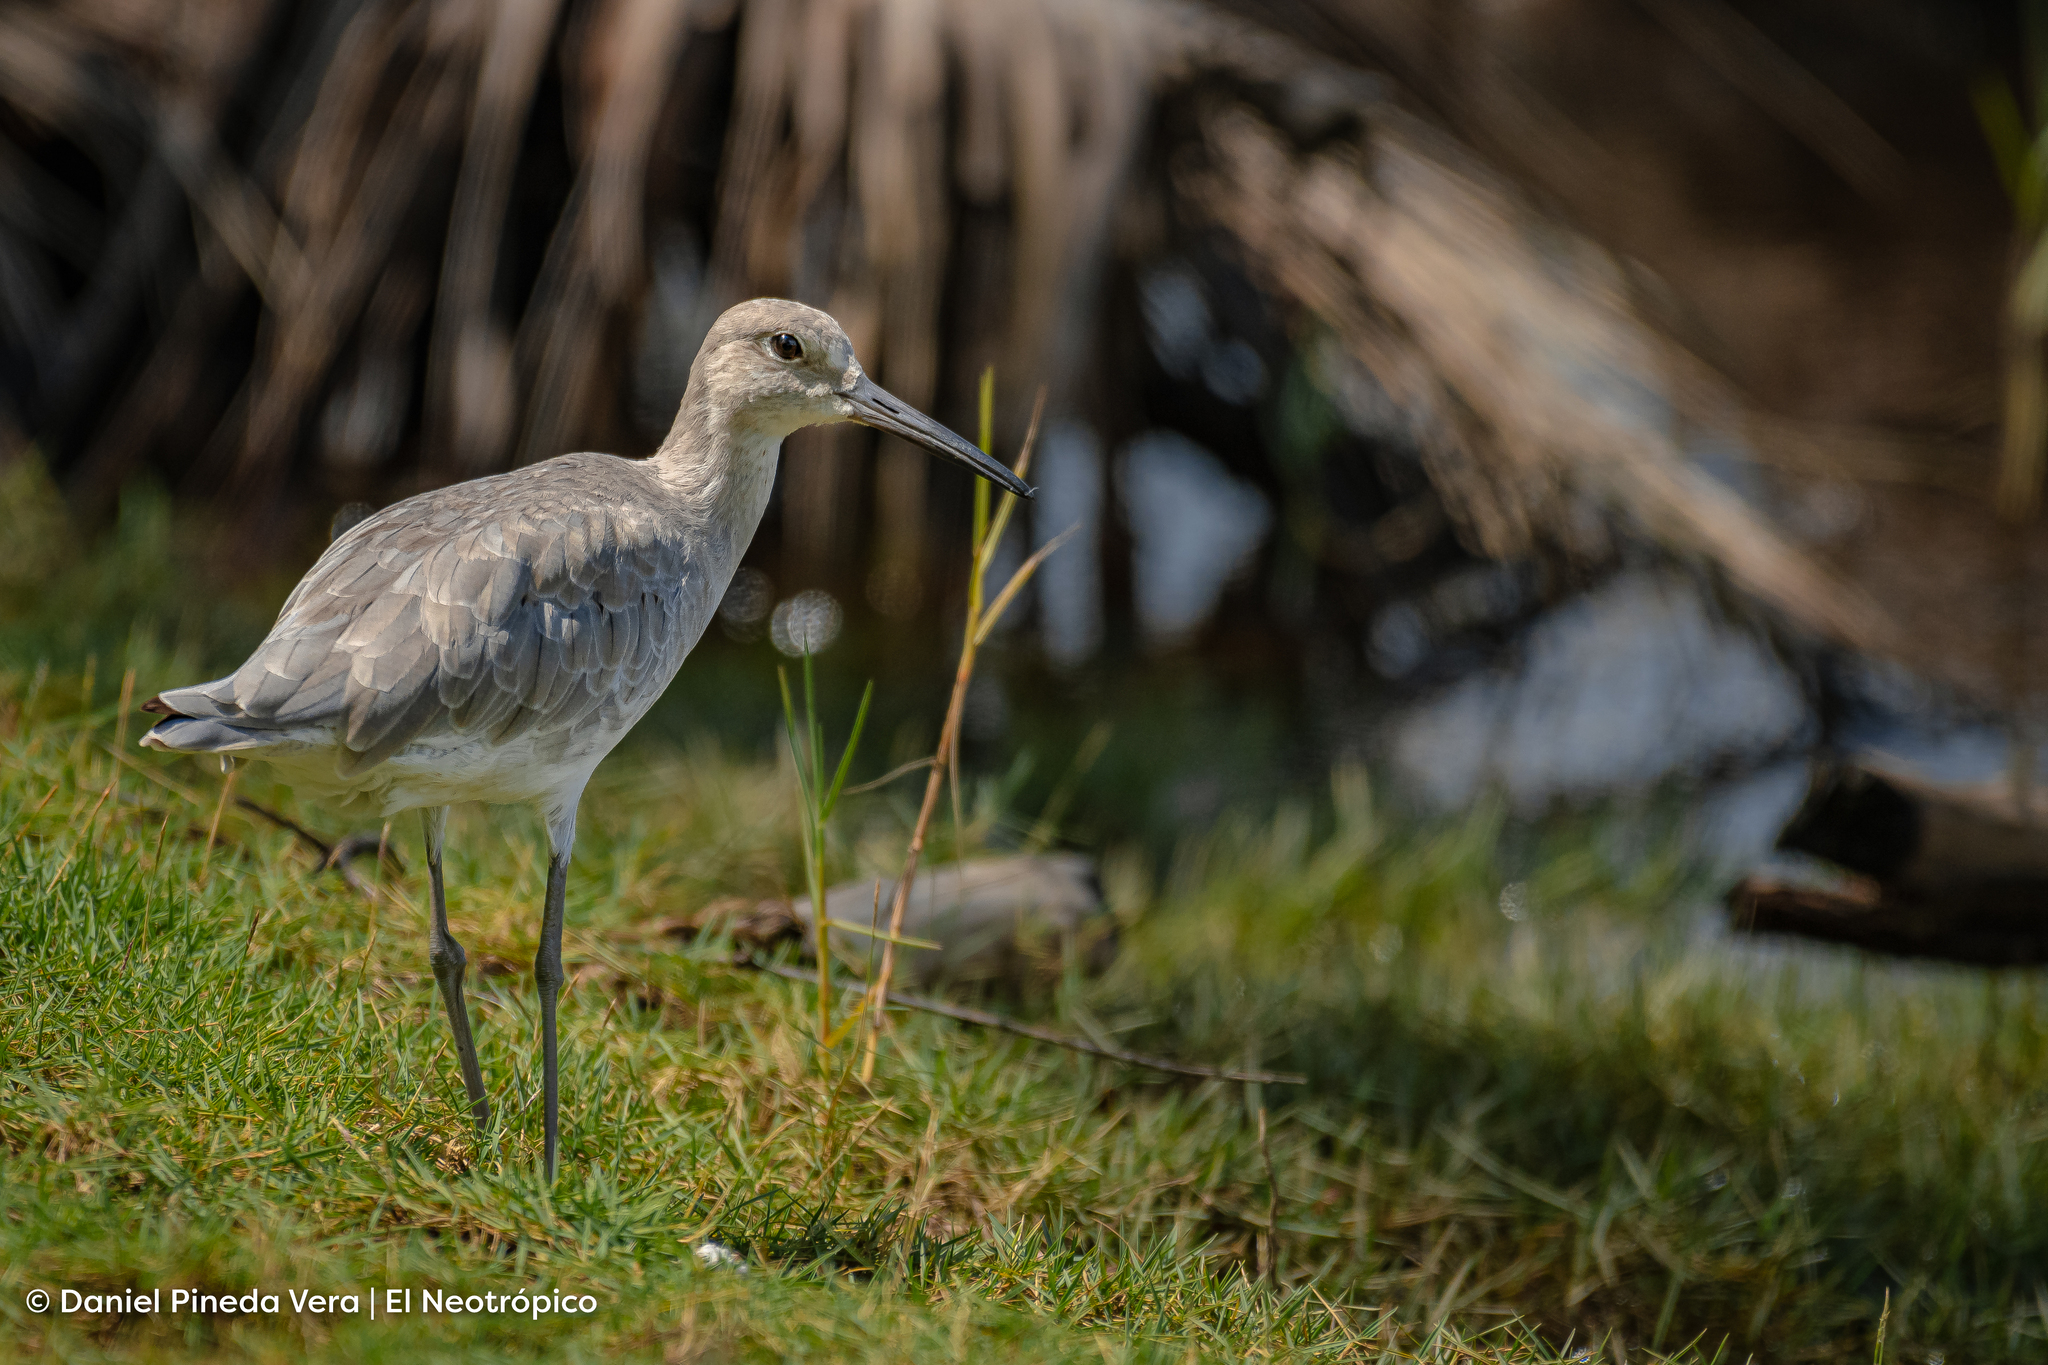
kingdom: Animalia
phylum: Chordata
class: Aves
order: Charadriiformes
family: Scolopacidae
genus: Tringa
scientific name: Tringa semipalmata
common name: Willet
